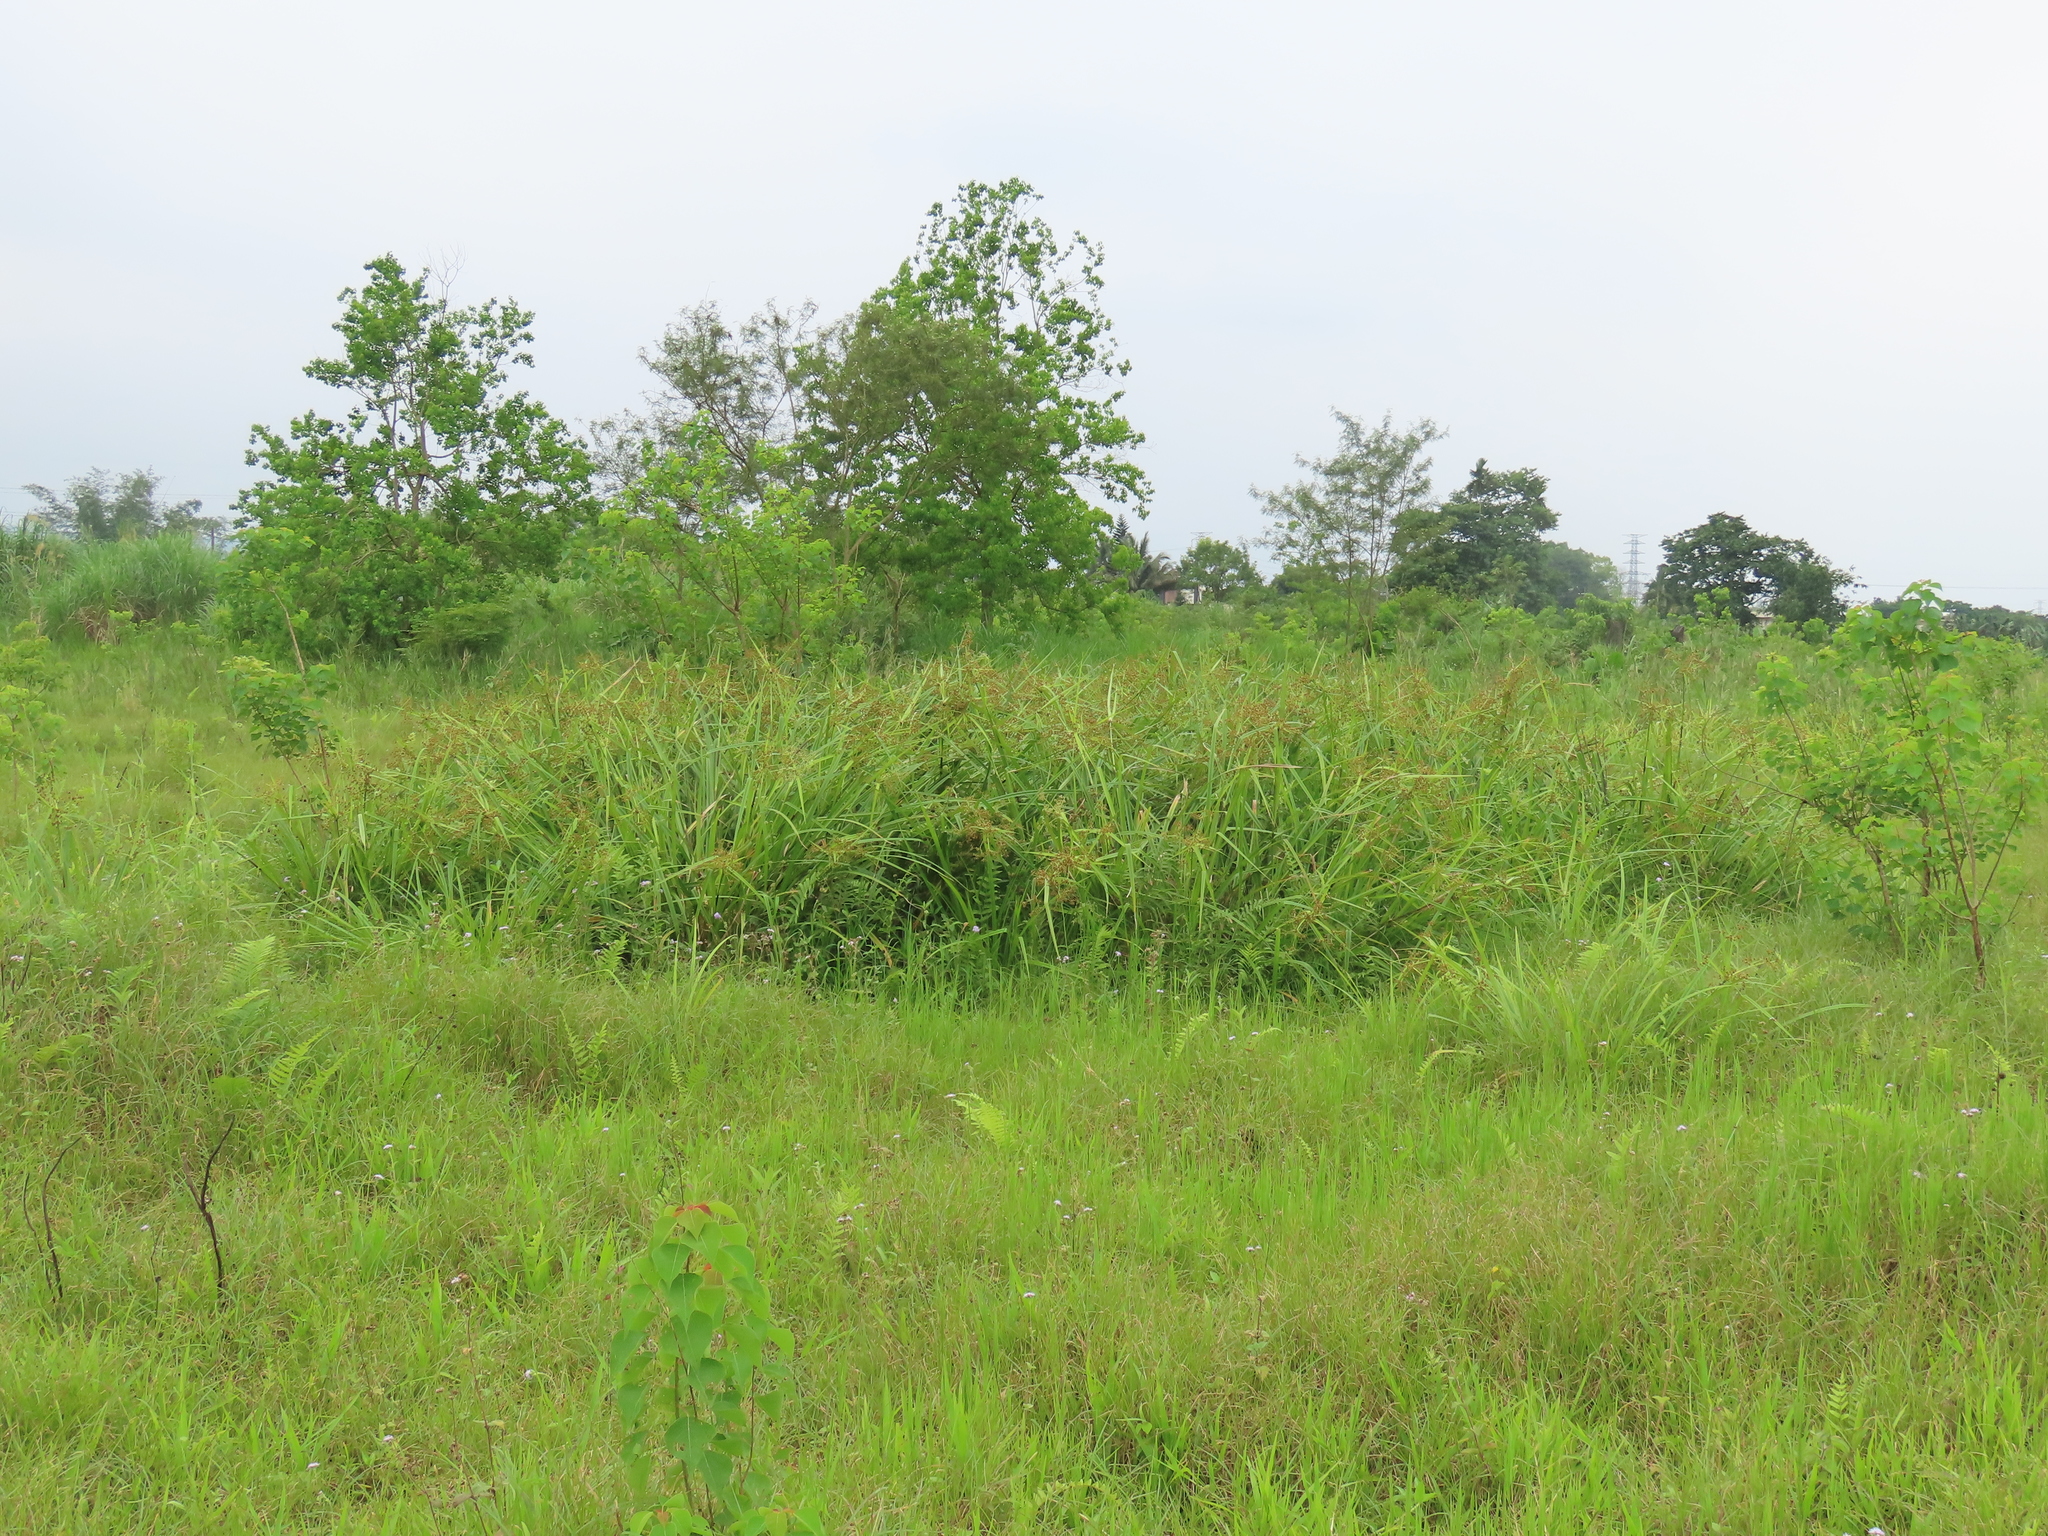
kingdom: Plantae
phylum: Tracheophyta
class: Liliopsida
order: Poales
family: Cyperaceae
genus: Scirpus
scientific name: Scirpus ternatanus
